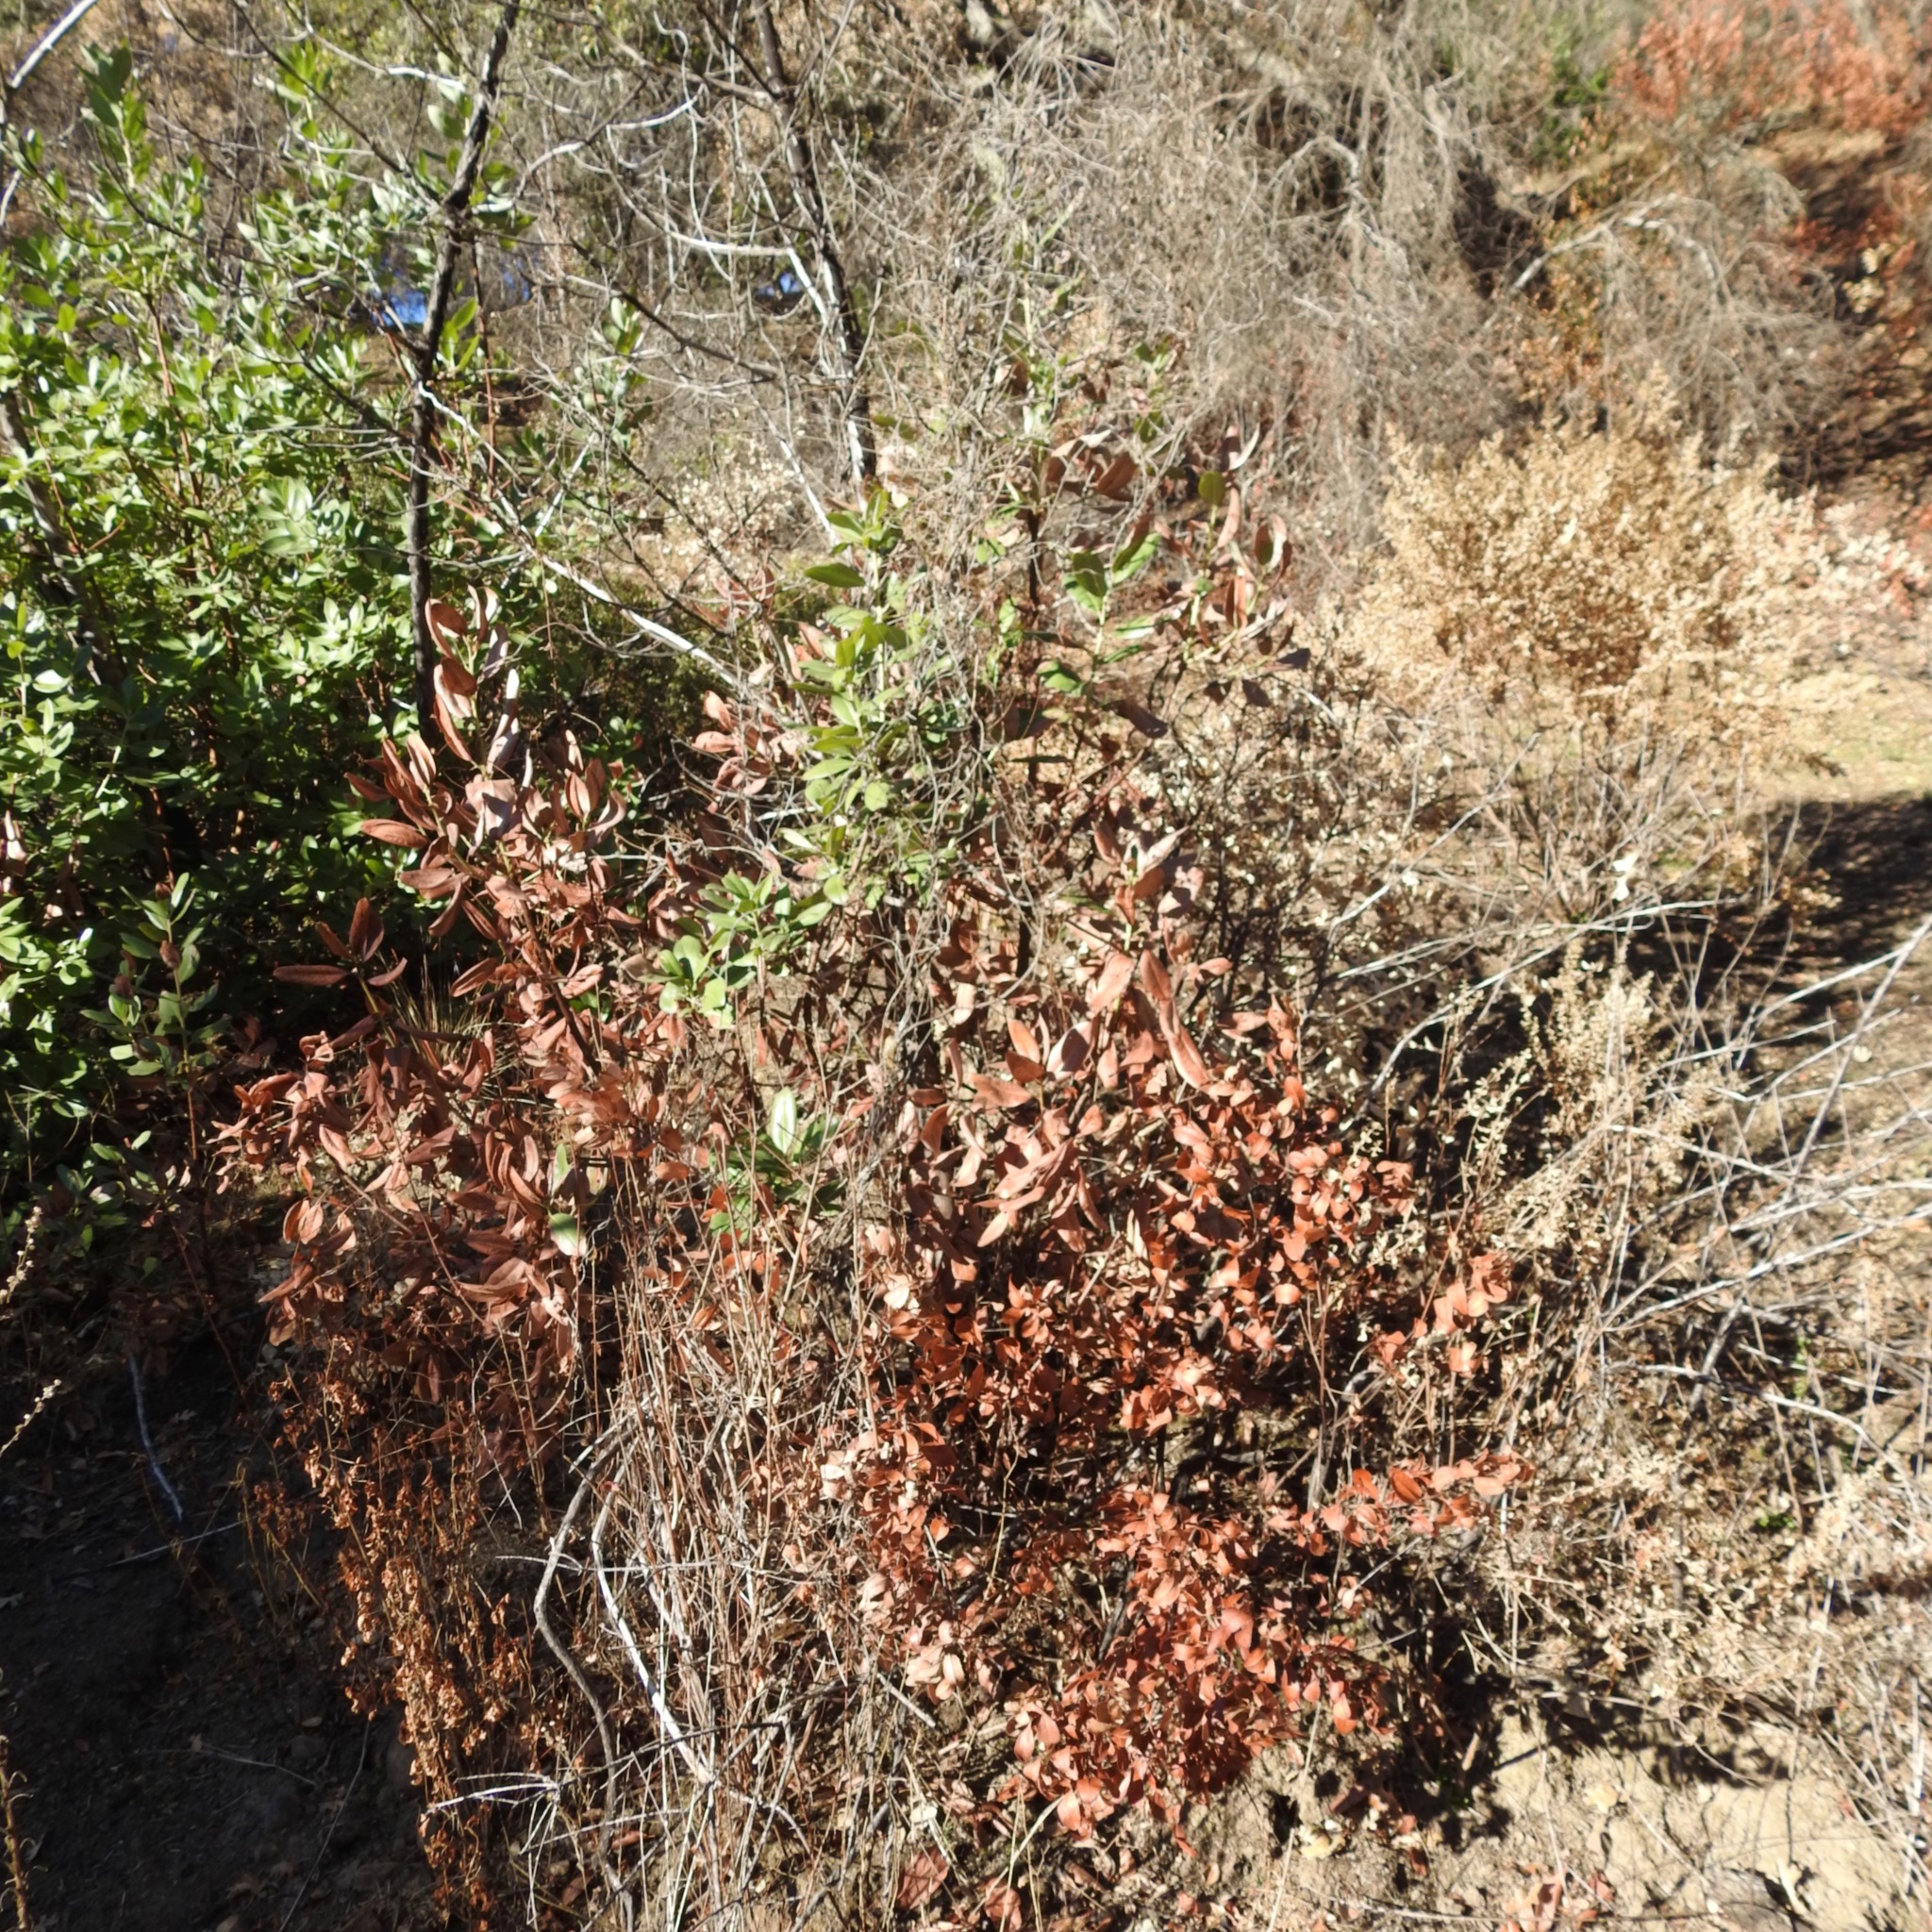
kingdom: Plantae
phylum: Tracheophyta
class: Magnoliopsida
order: Ericales
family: Ericaceae
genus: Arbutus
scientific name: Arbutus menziesii
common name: Pacific madrone
